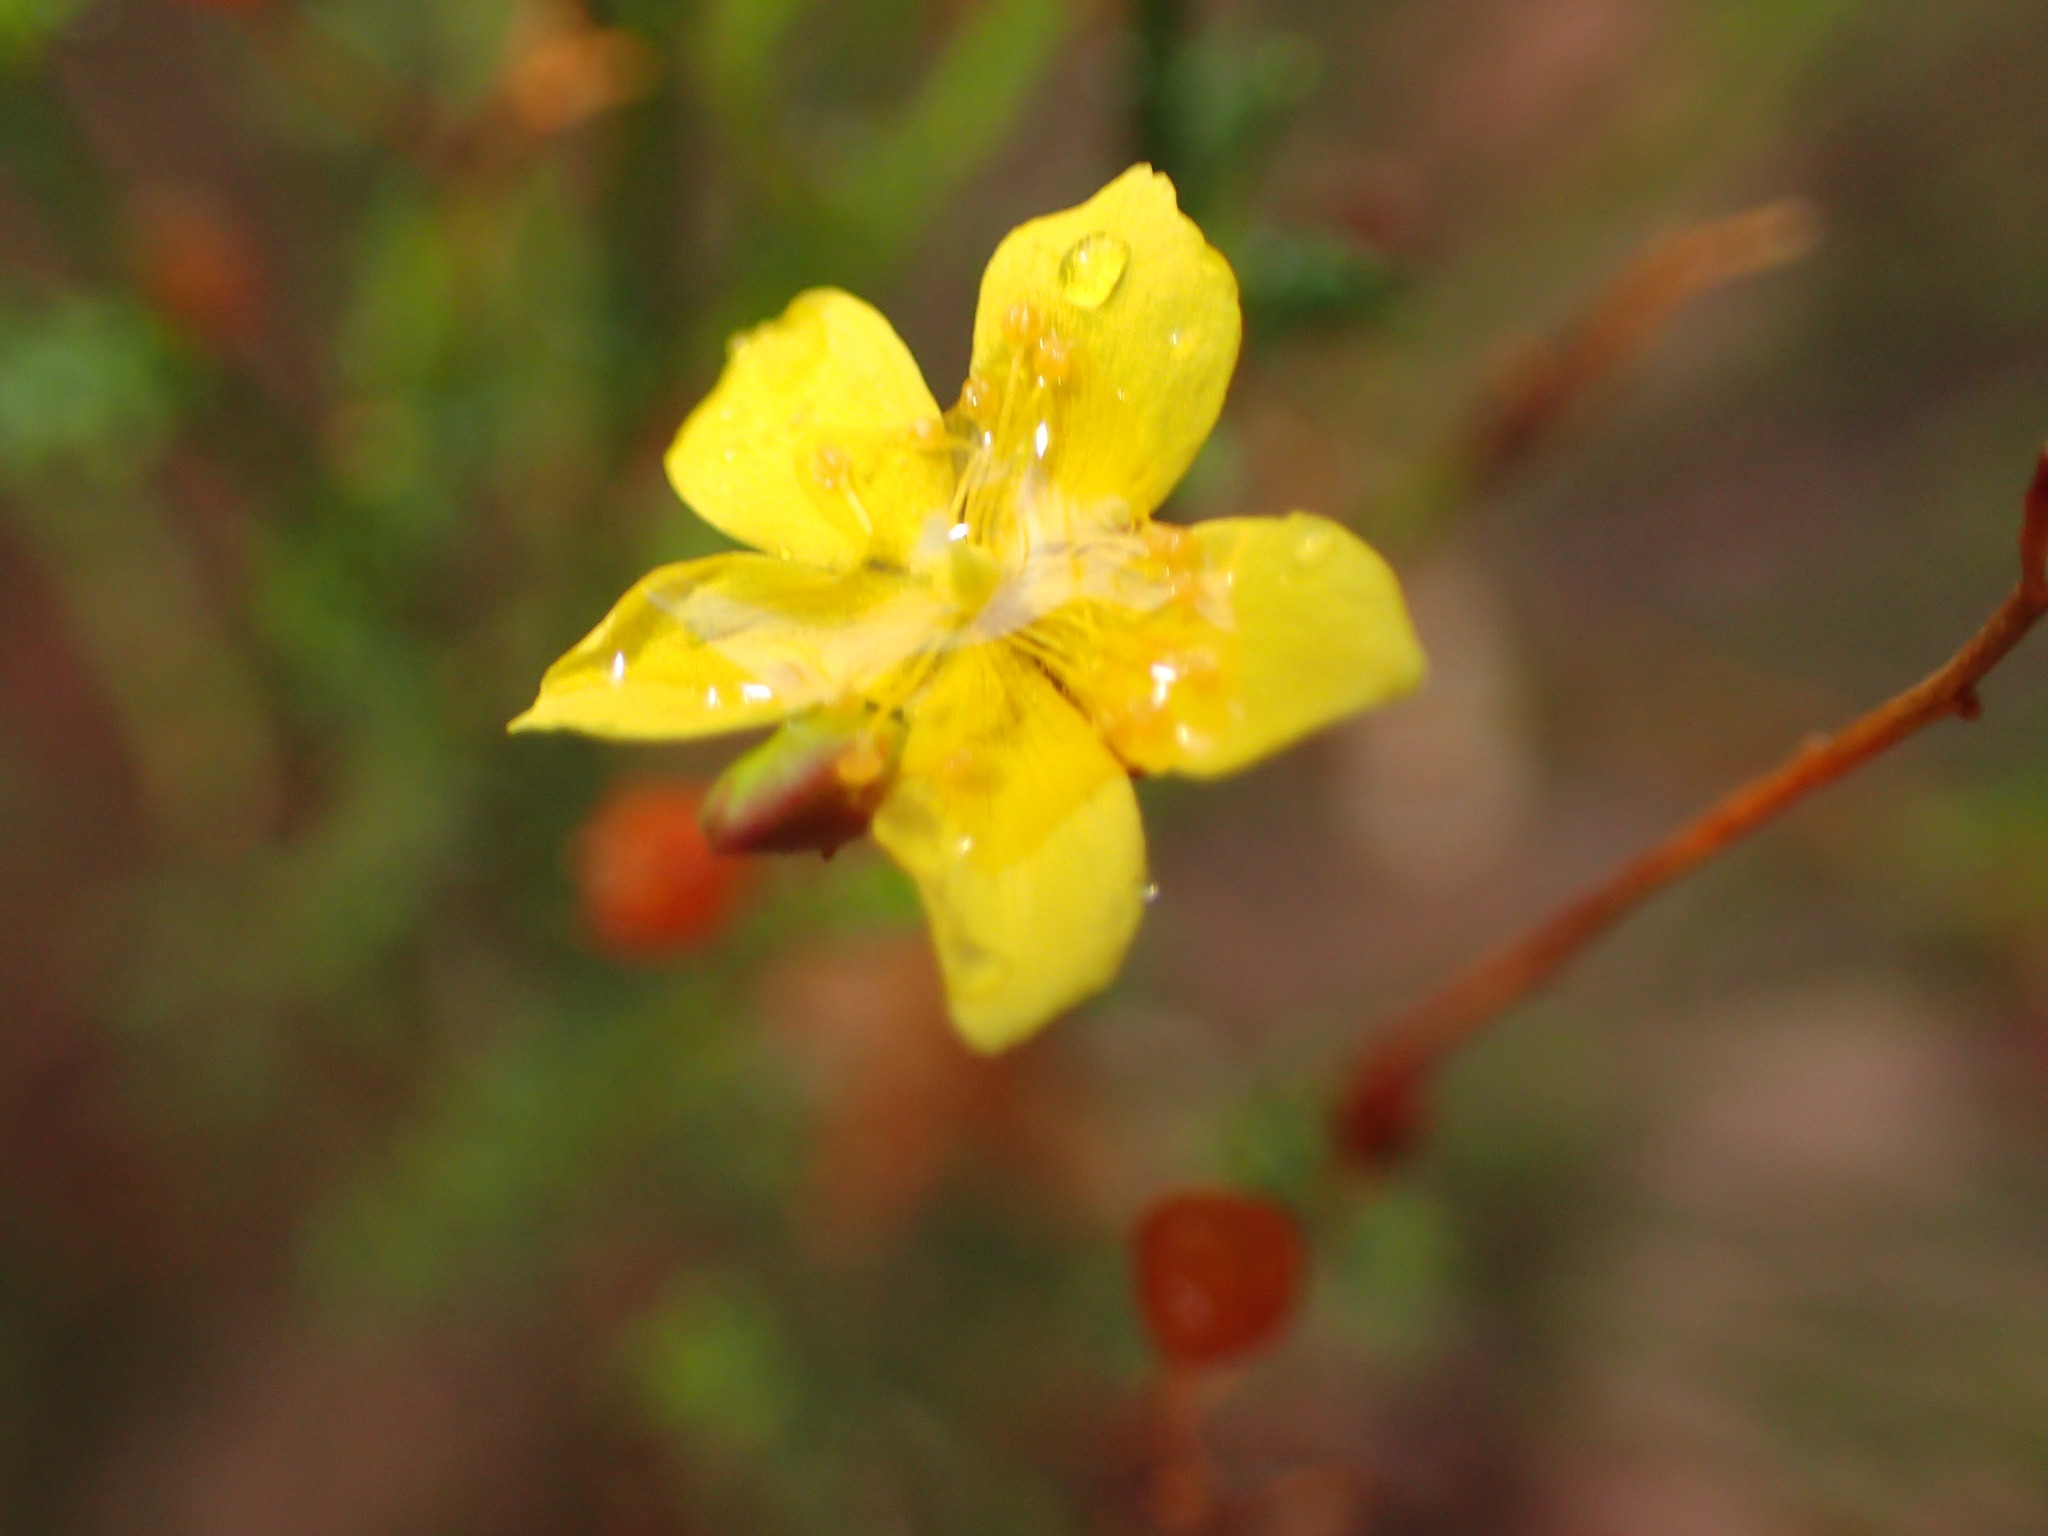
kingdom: Plantae
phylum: Tracheophyta
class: Magnoliopsida
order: Malvales
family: Cistaceae
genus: Crocanthemum
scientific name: Crocanthemum scoparium
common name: Broom-rose
